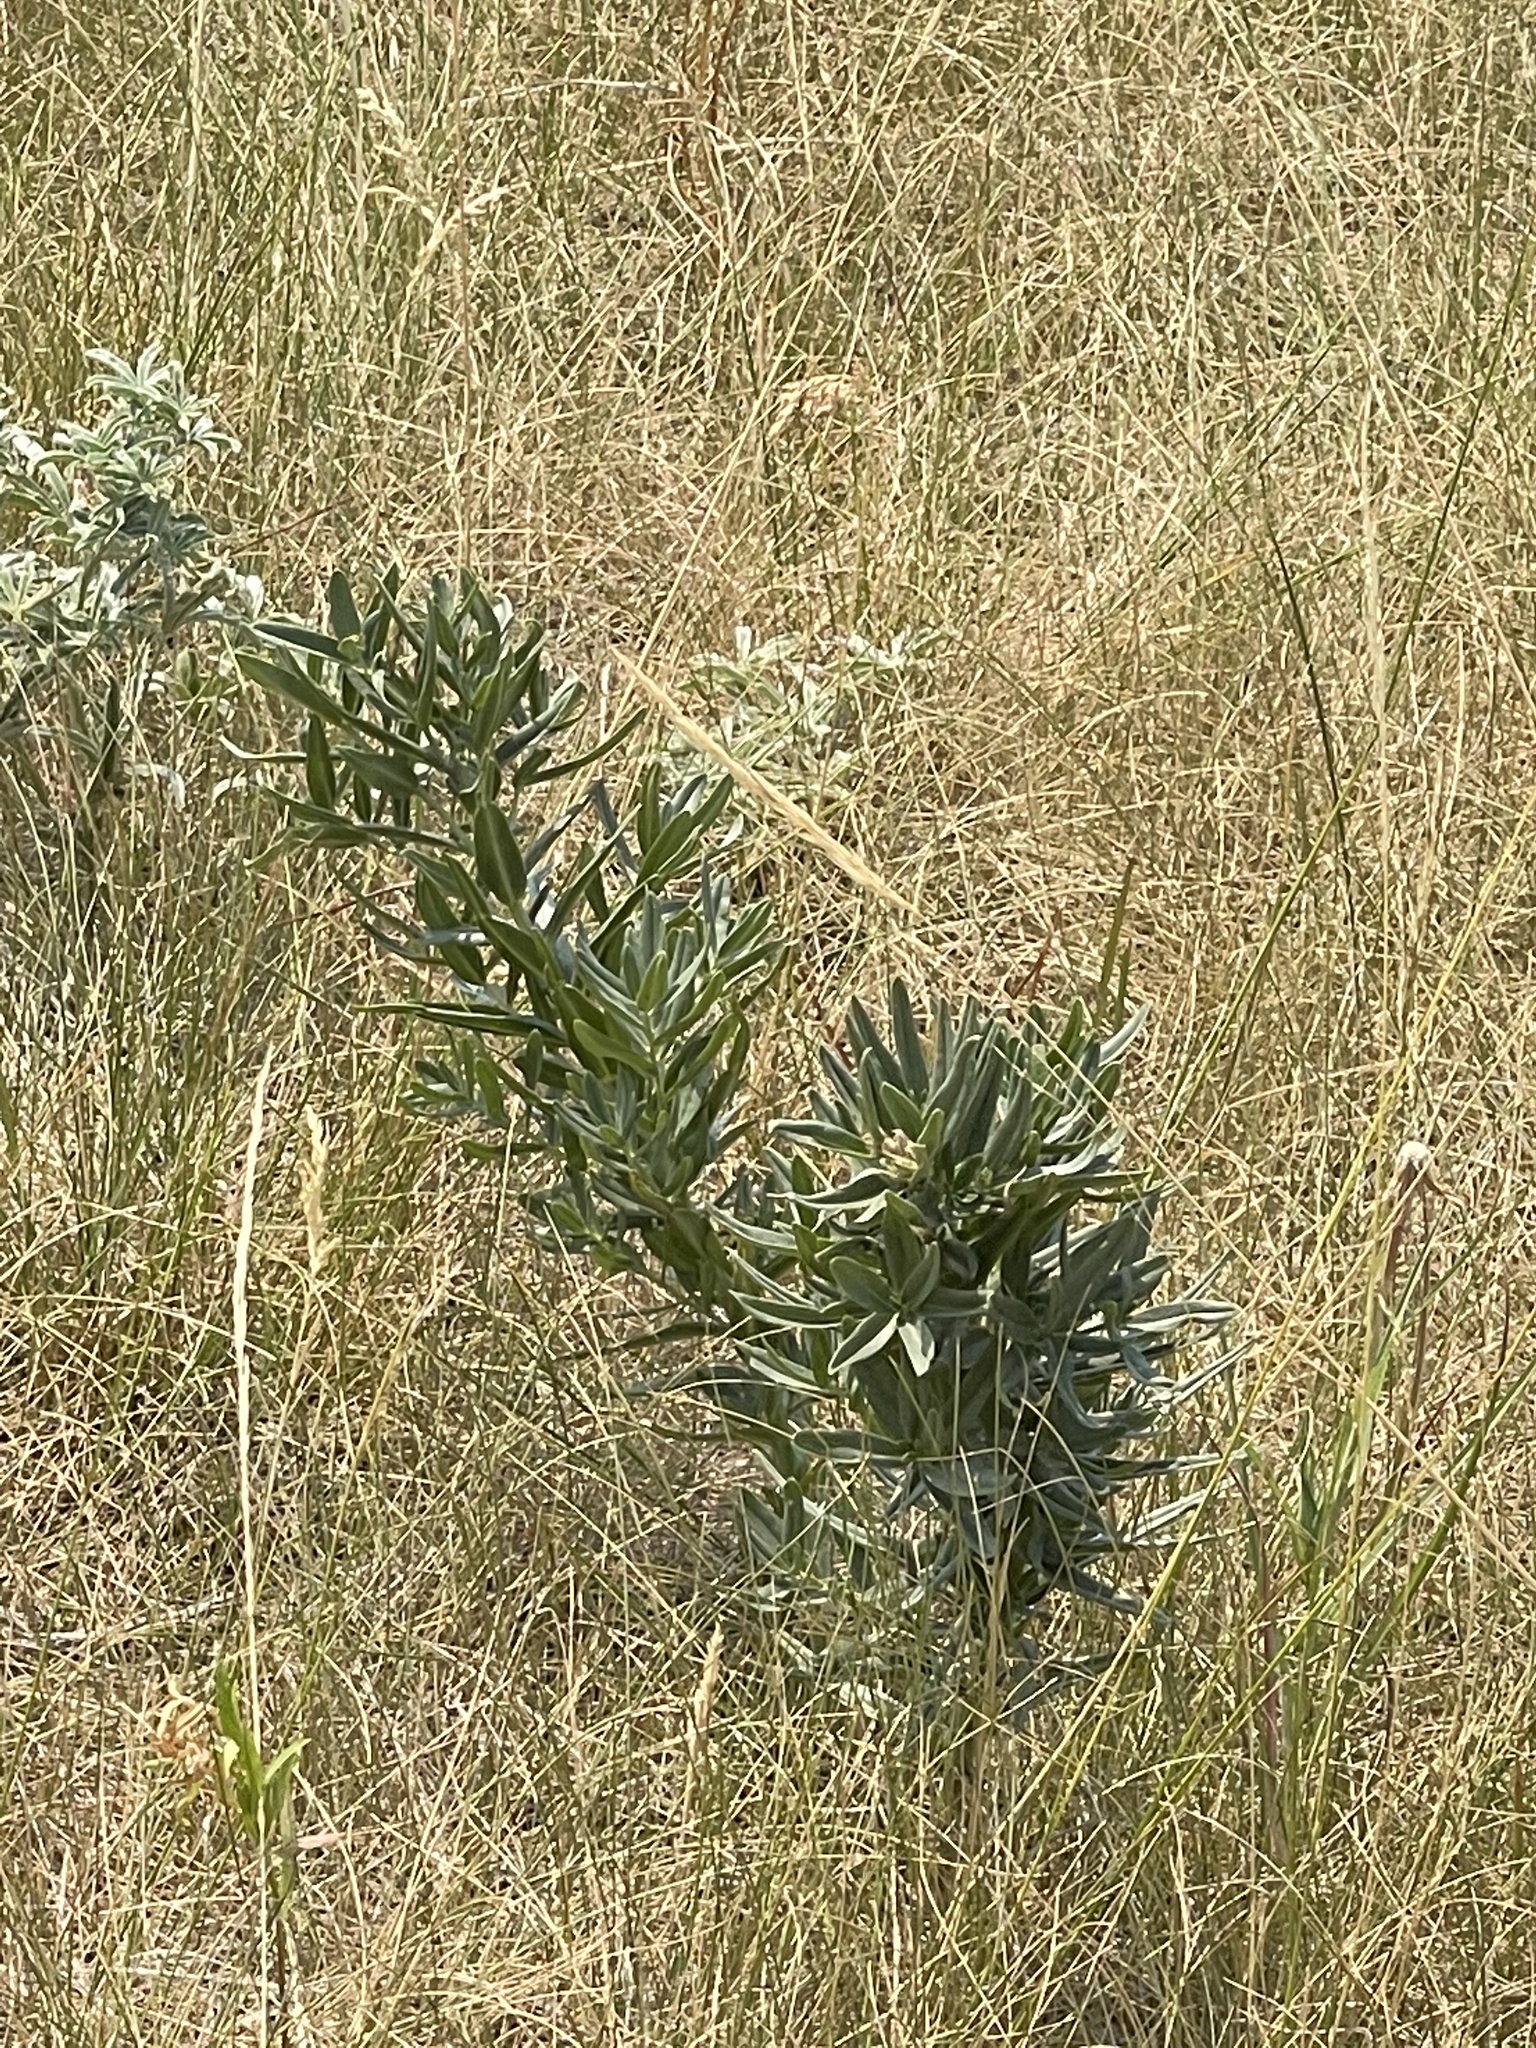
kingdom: Plantae
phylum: Tracheophyta
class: Magnoliopsida
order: Boraginales
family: Boraginaceae
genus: Lithospermum
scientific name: Lithospermum ruderale
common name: Western gromwell
